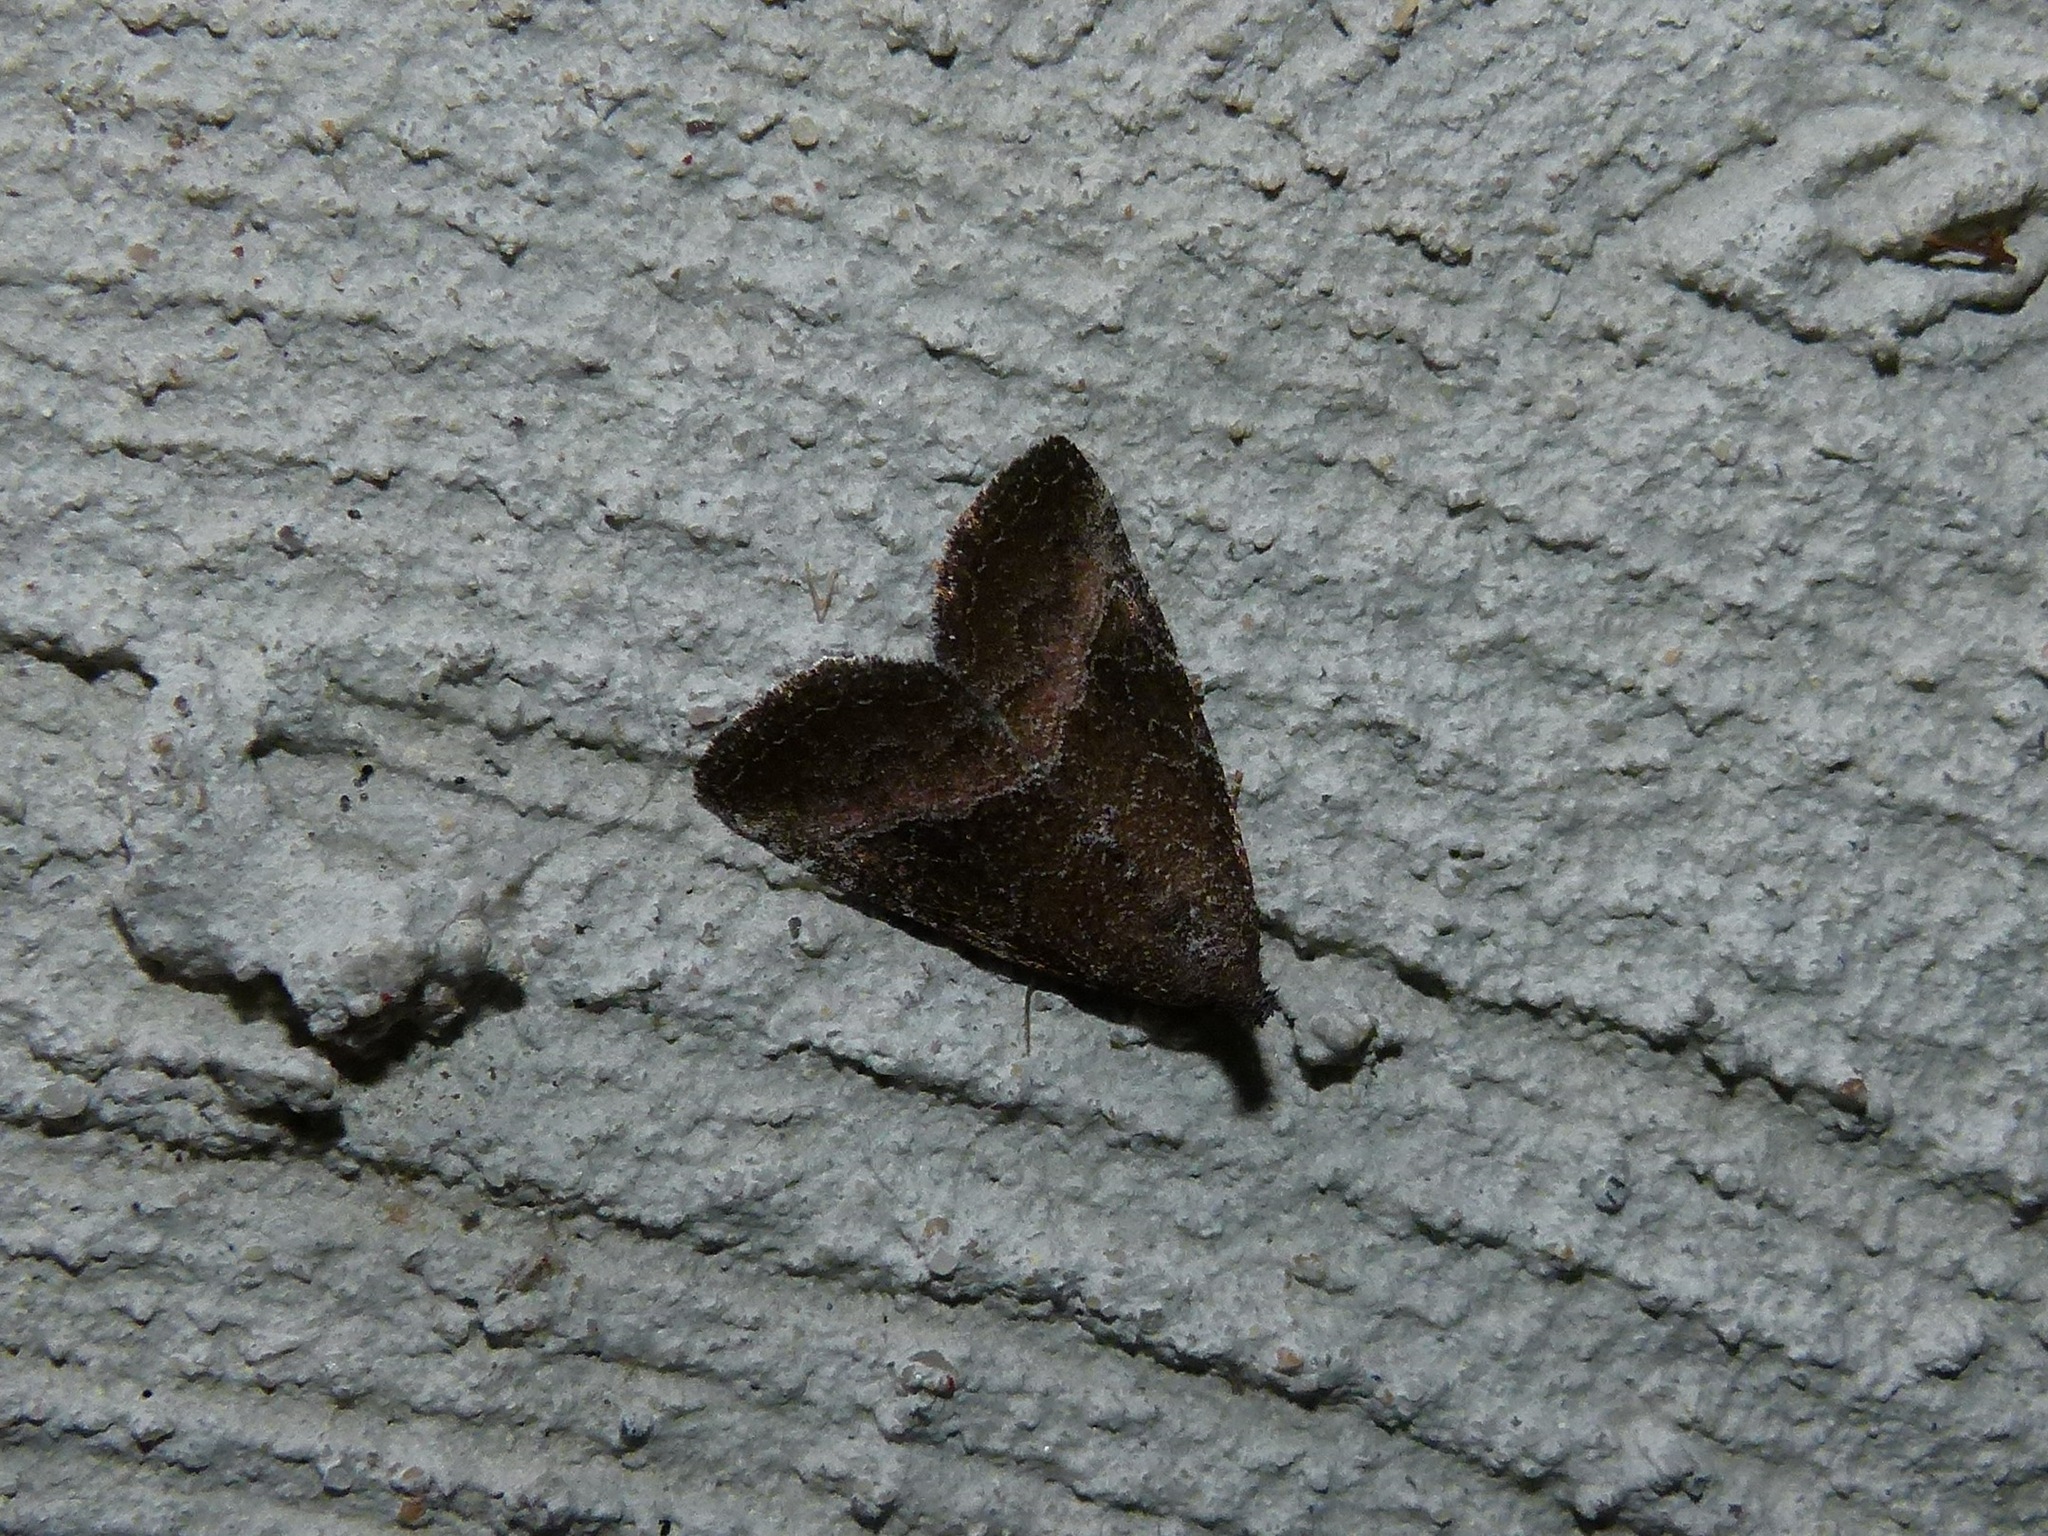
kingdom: Animalia
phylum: Arthropoda
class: Insecta
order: Lepidoptera
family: Noctuidae
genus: Ogdoconta
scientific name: Ogdoconta cinereola
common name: Common pinkband
